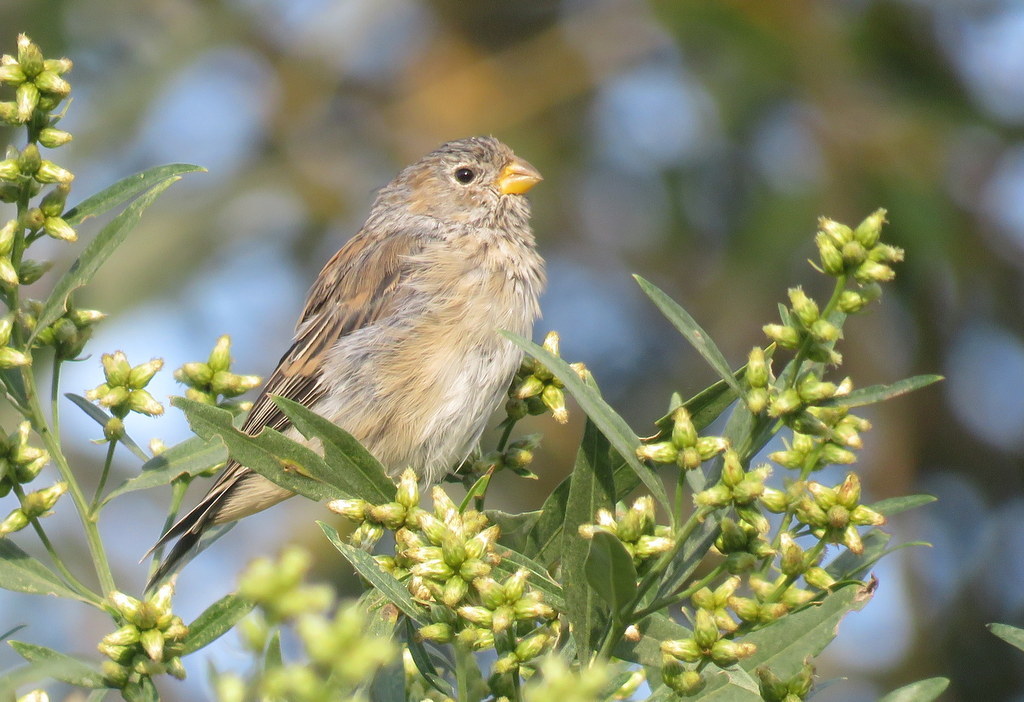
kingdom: Animalia
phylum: Chordata
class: Aves
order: Passeriformes
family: Thraupidae
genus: Catamenia
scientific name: Catamenia analis
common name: Band-tailed seedeater
